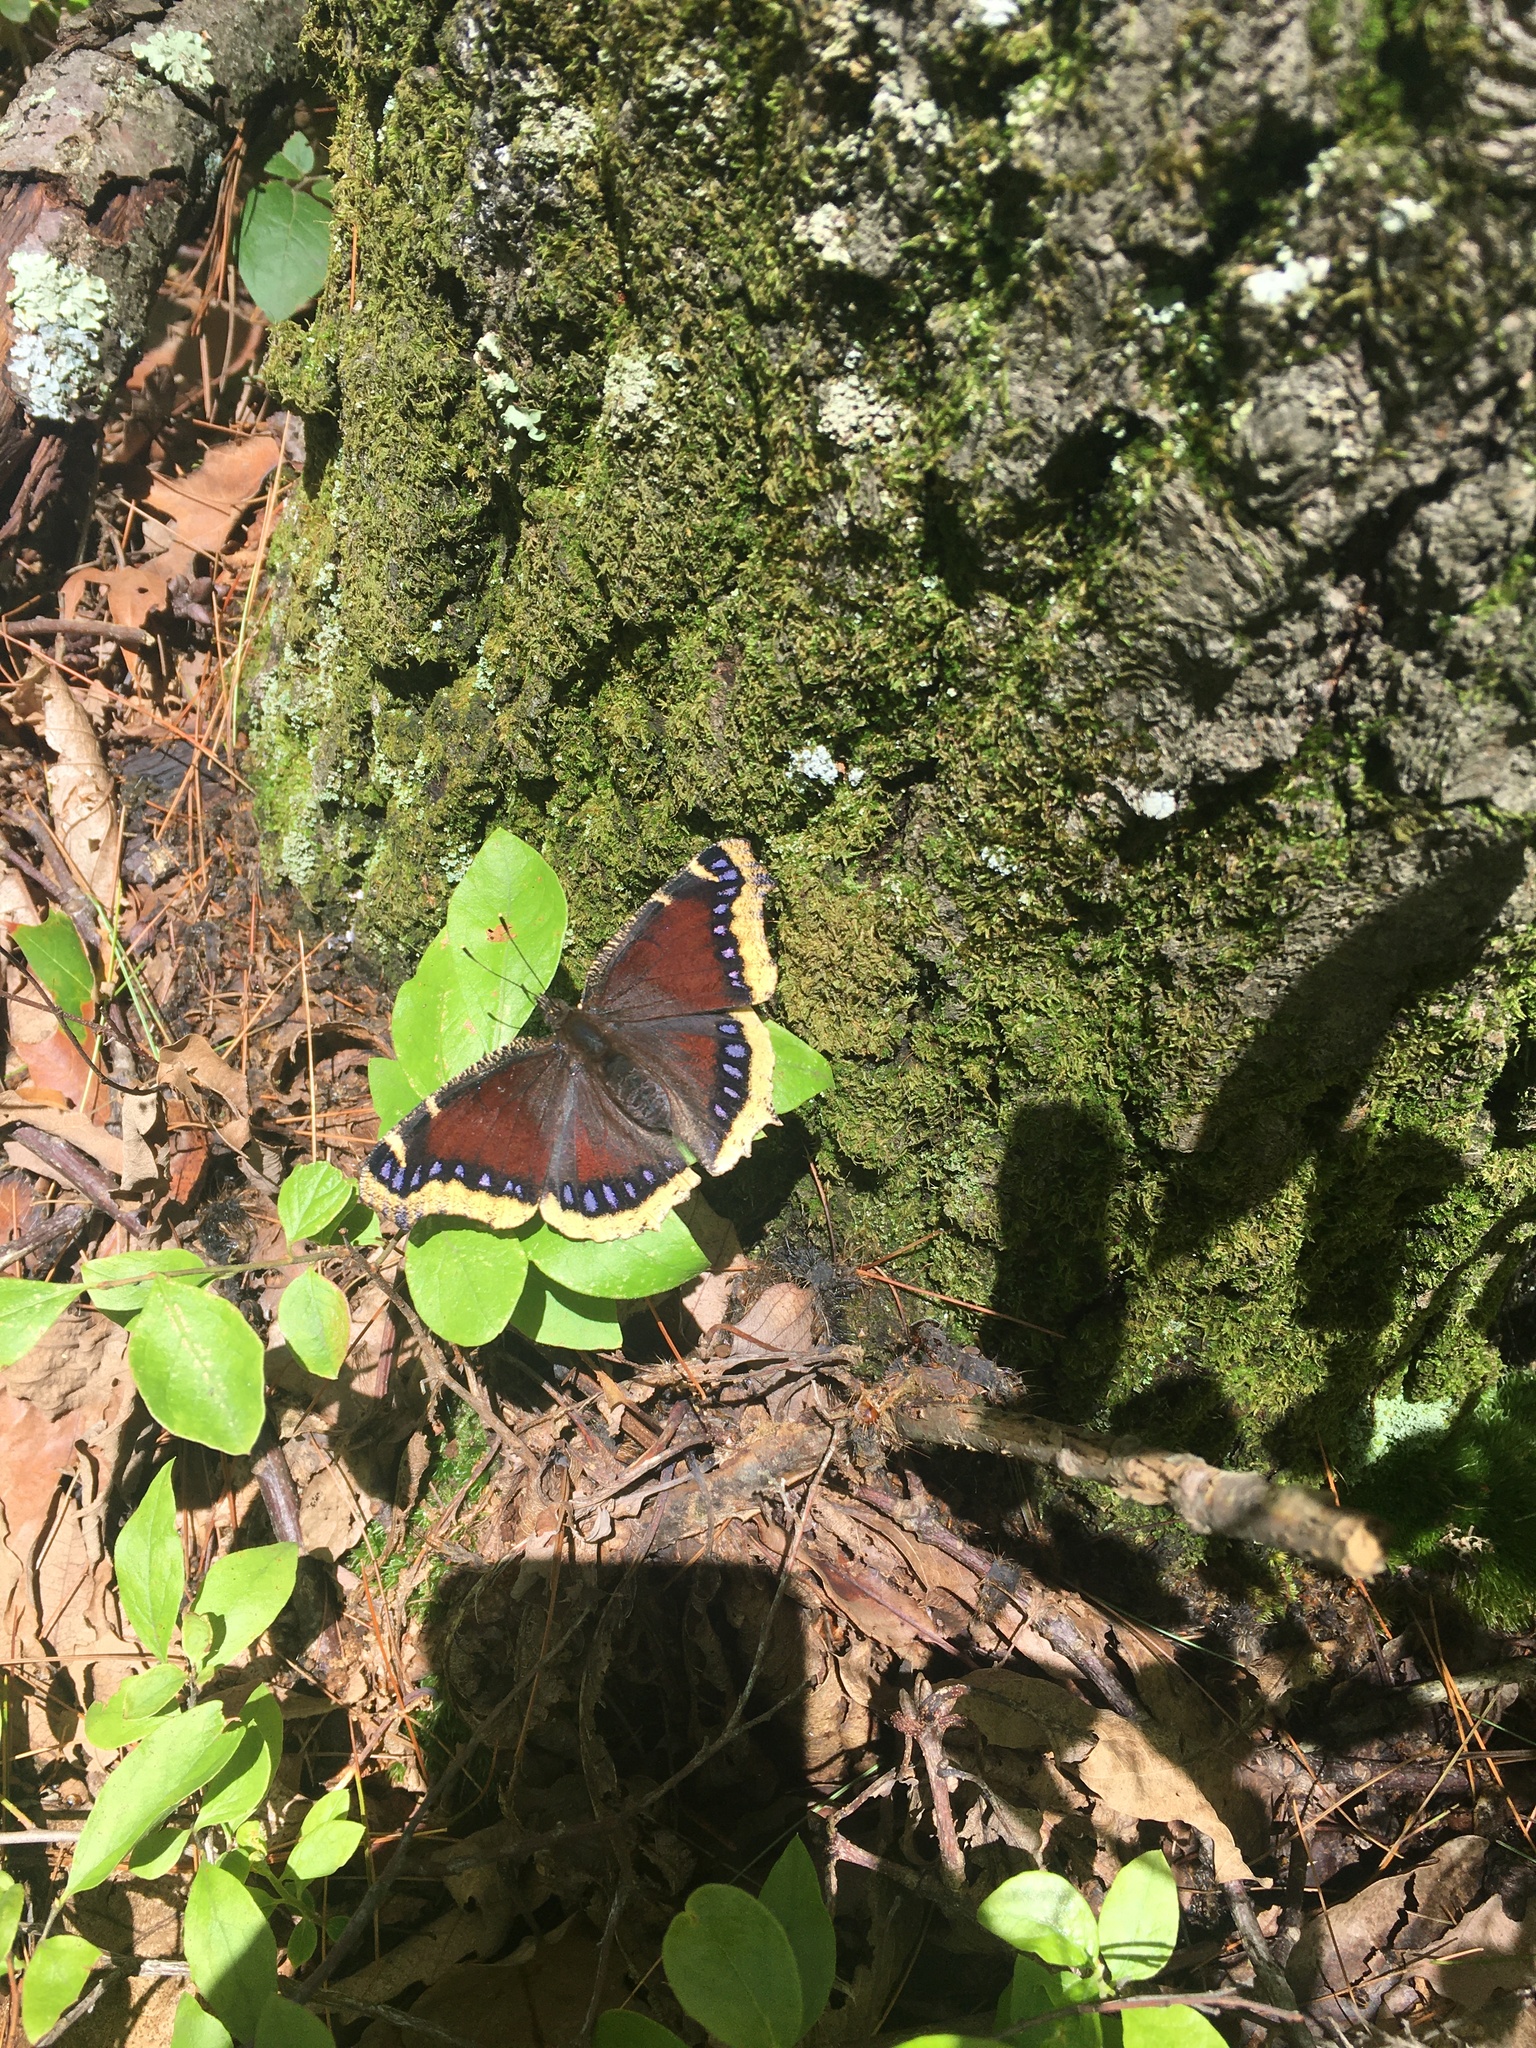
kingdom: Animalia
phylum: Arthropoda
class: Insecta
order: Lepidoptera
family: Nymphalidae
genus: Nymphalis
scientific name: Nymphalis antiopa
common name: Camberwell beauty
